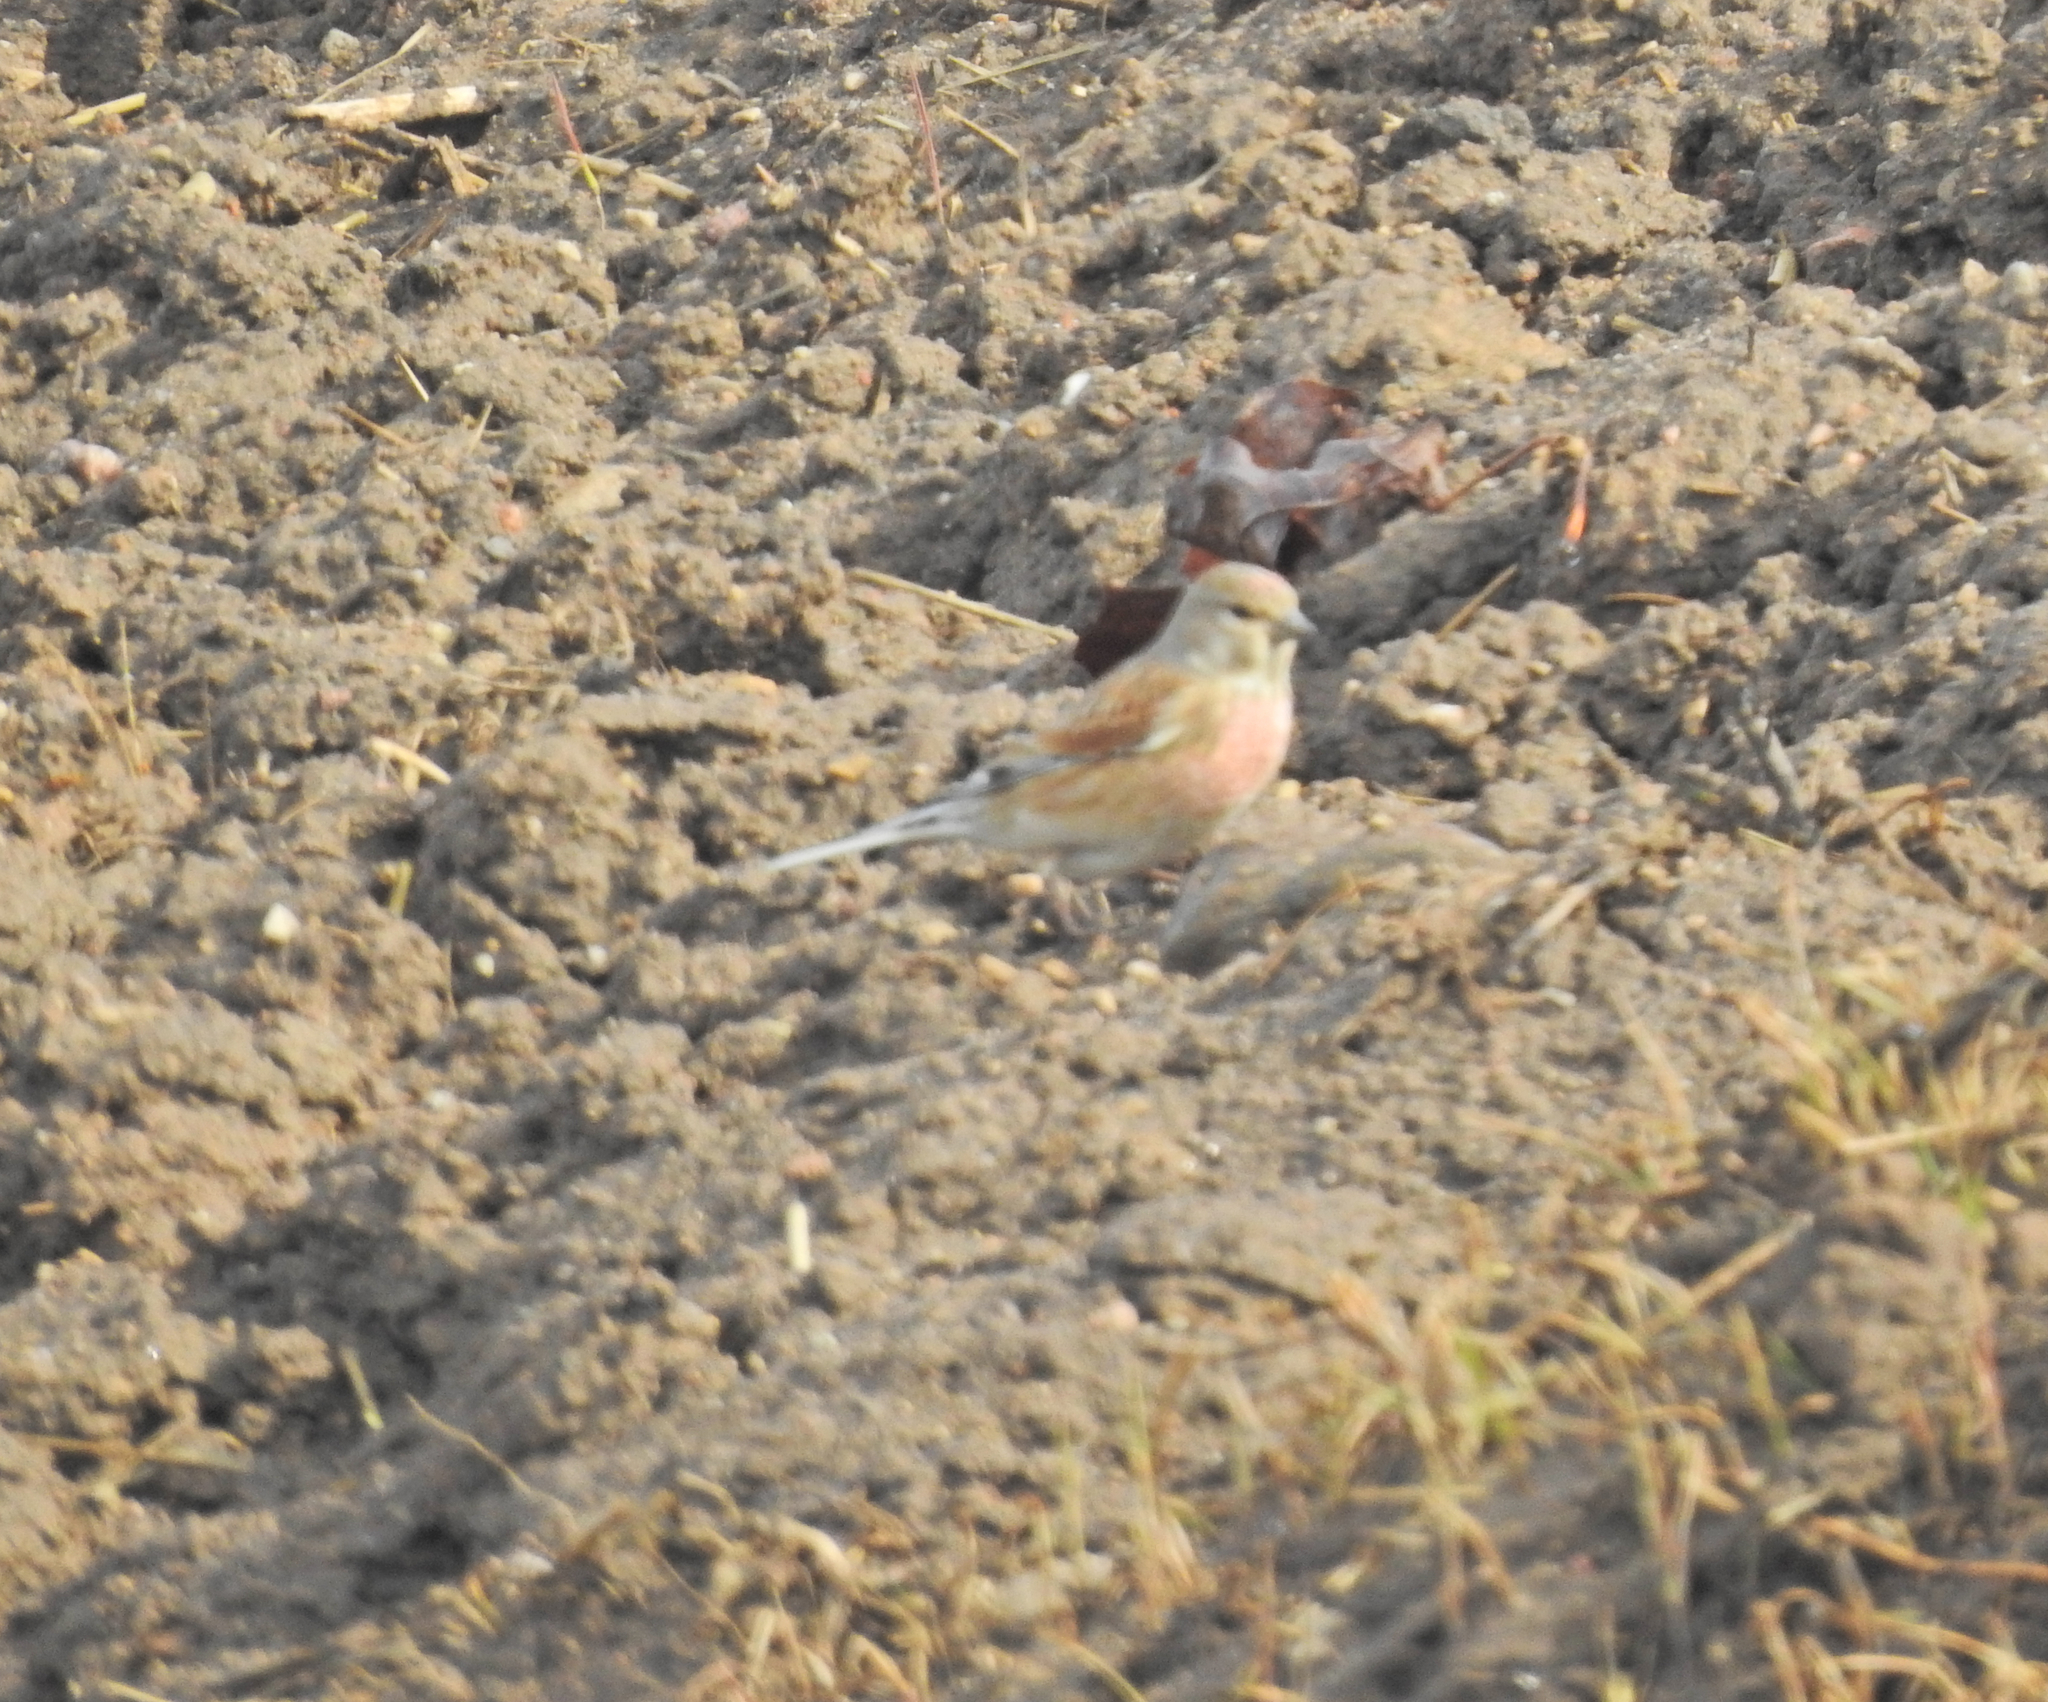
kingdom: Animalia
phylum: Chordata
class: Aves
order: Passeriformes
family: Fringillidae
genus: Linaria
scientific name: Linaria cannabina
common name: Common linnet
